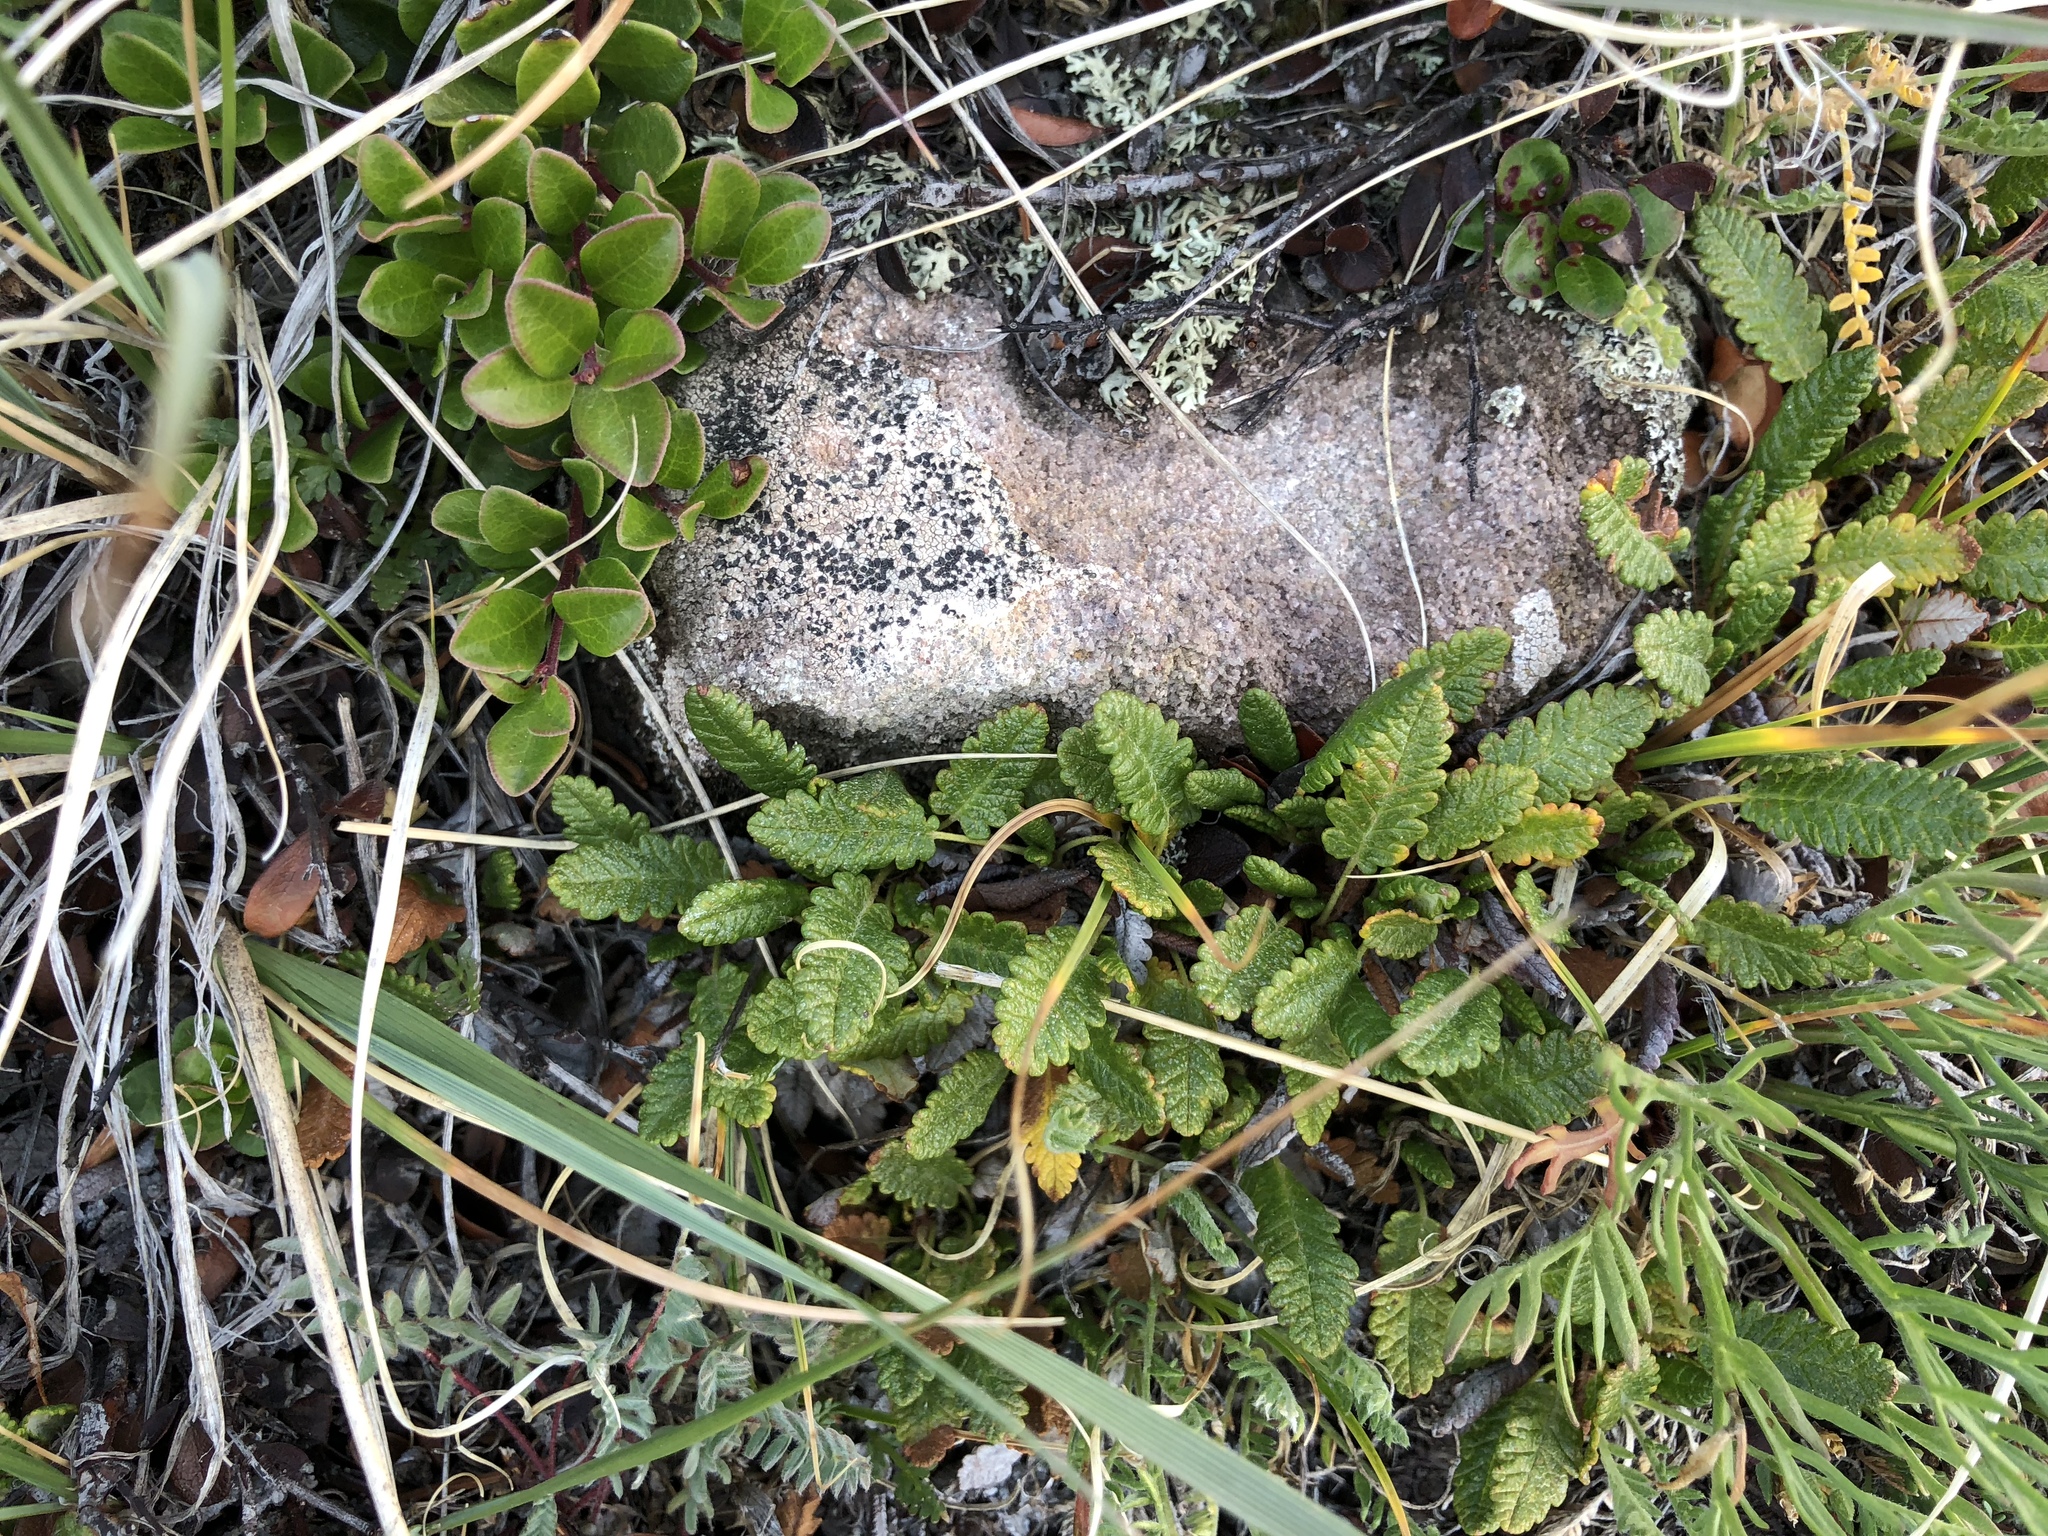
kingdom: Plantae
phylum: Tracheophyta
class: Magnoliopsida
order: Rosales
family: Rosaceae
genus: Dryas
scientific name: Dryas octopetala
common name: Eight-petal mountain-avens
